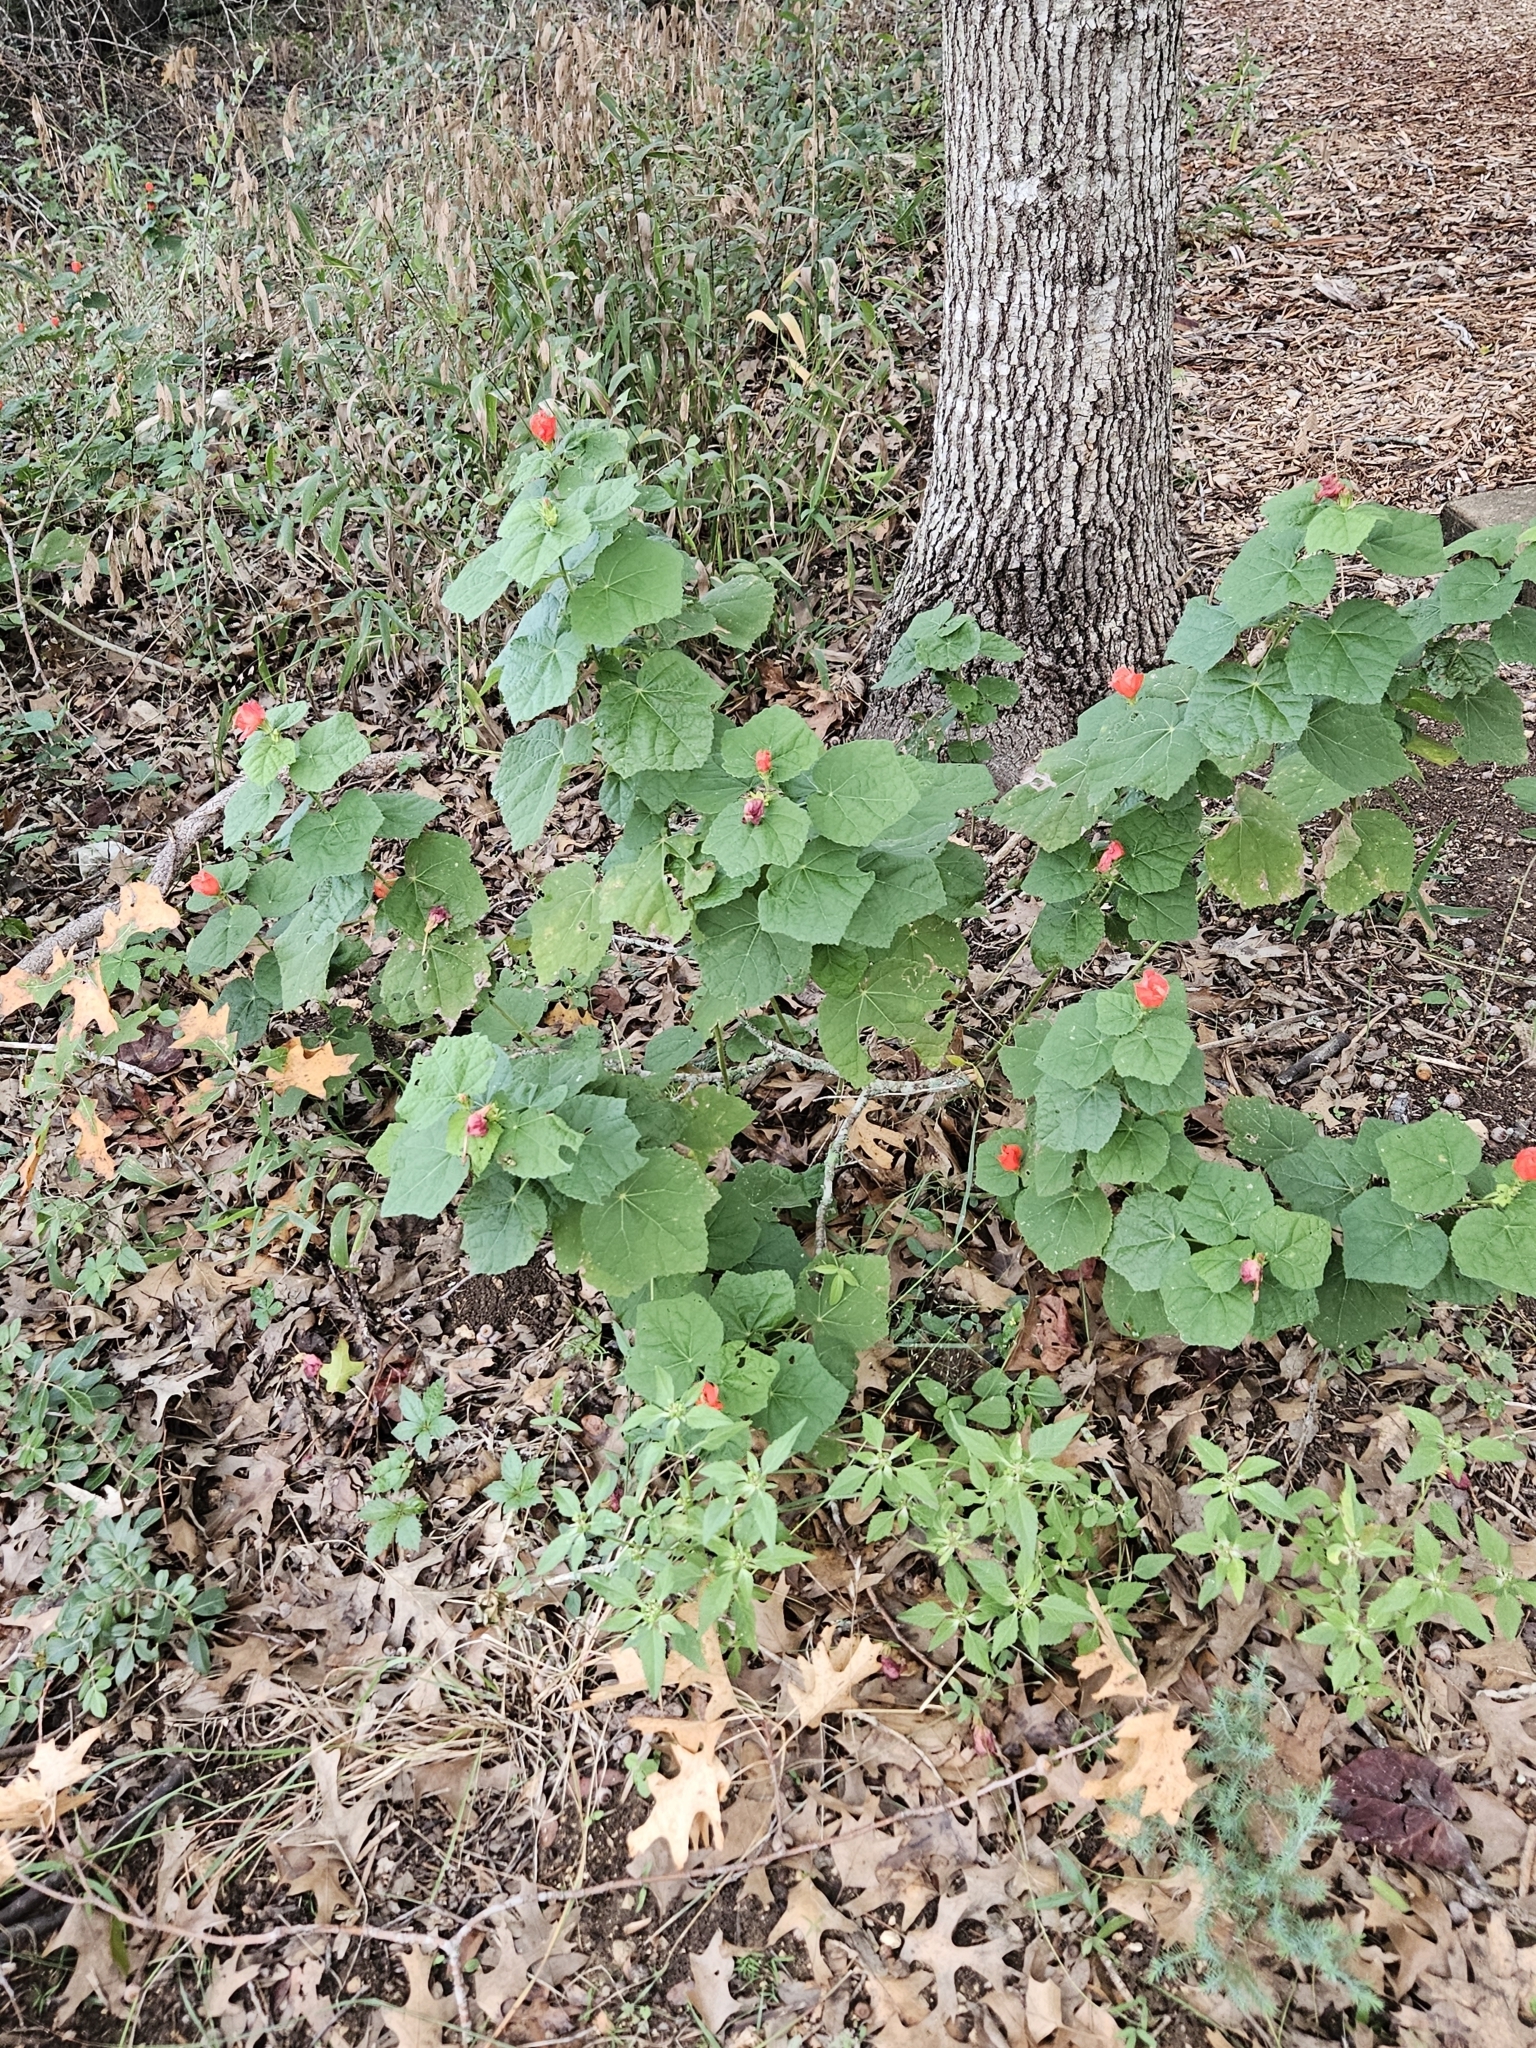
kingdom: Plantae
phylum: Tracheophyta
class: Magnoliopsida
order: Malvales
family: Malvaceae
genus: Malvaviscus
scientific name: Malvaviscus arboreus
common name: Wax mallow
